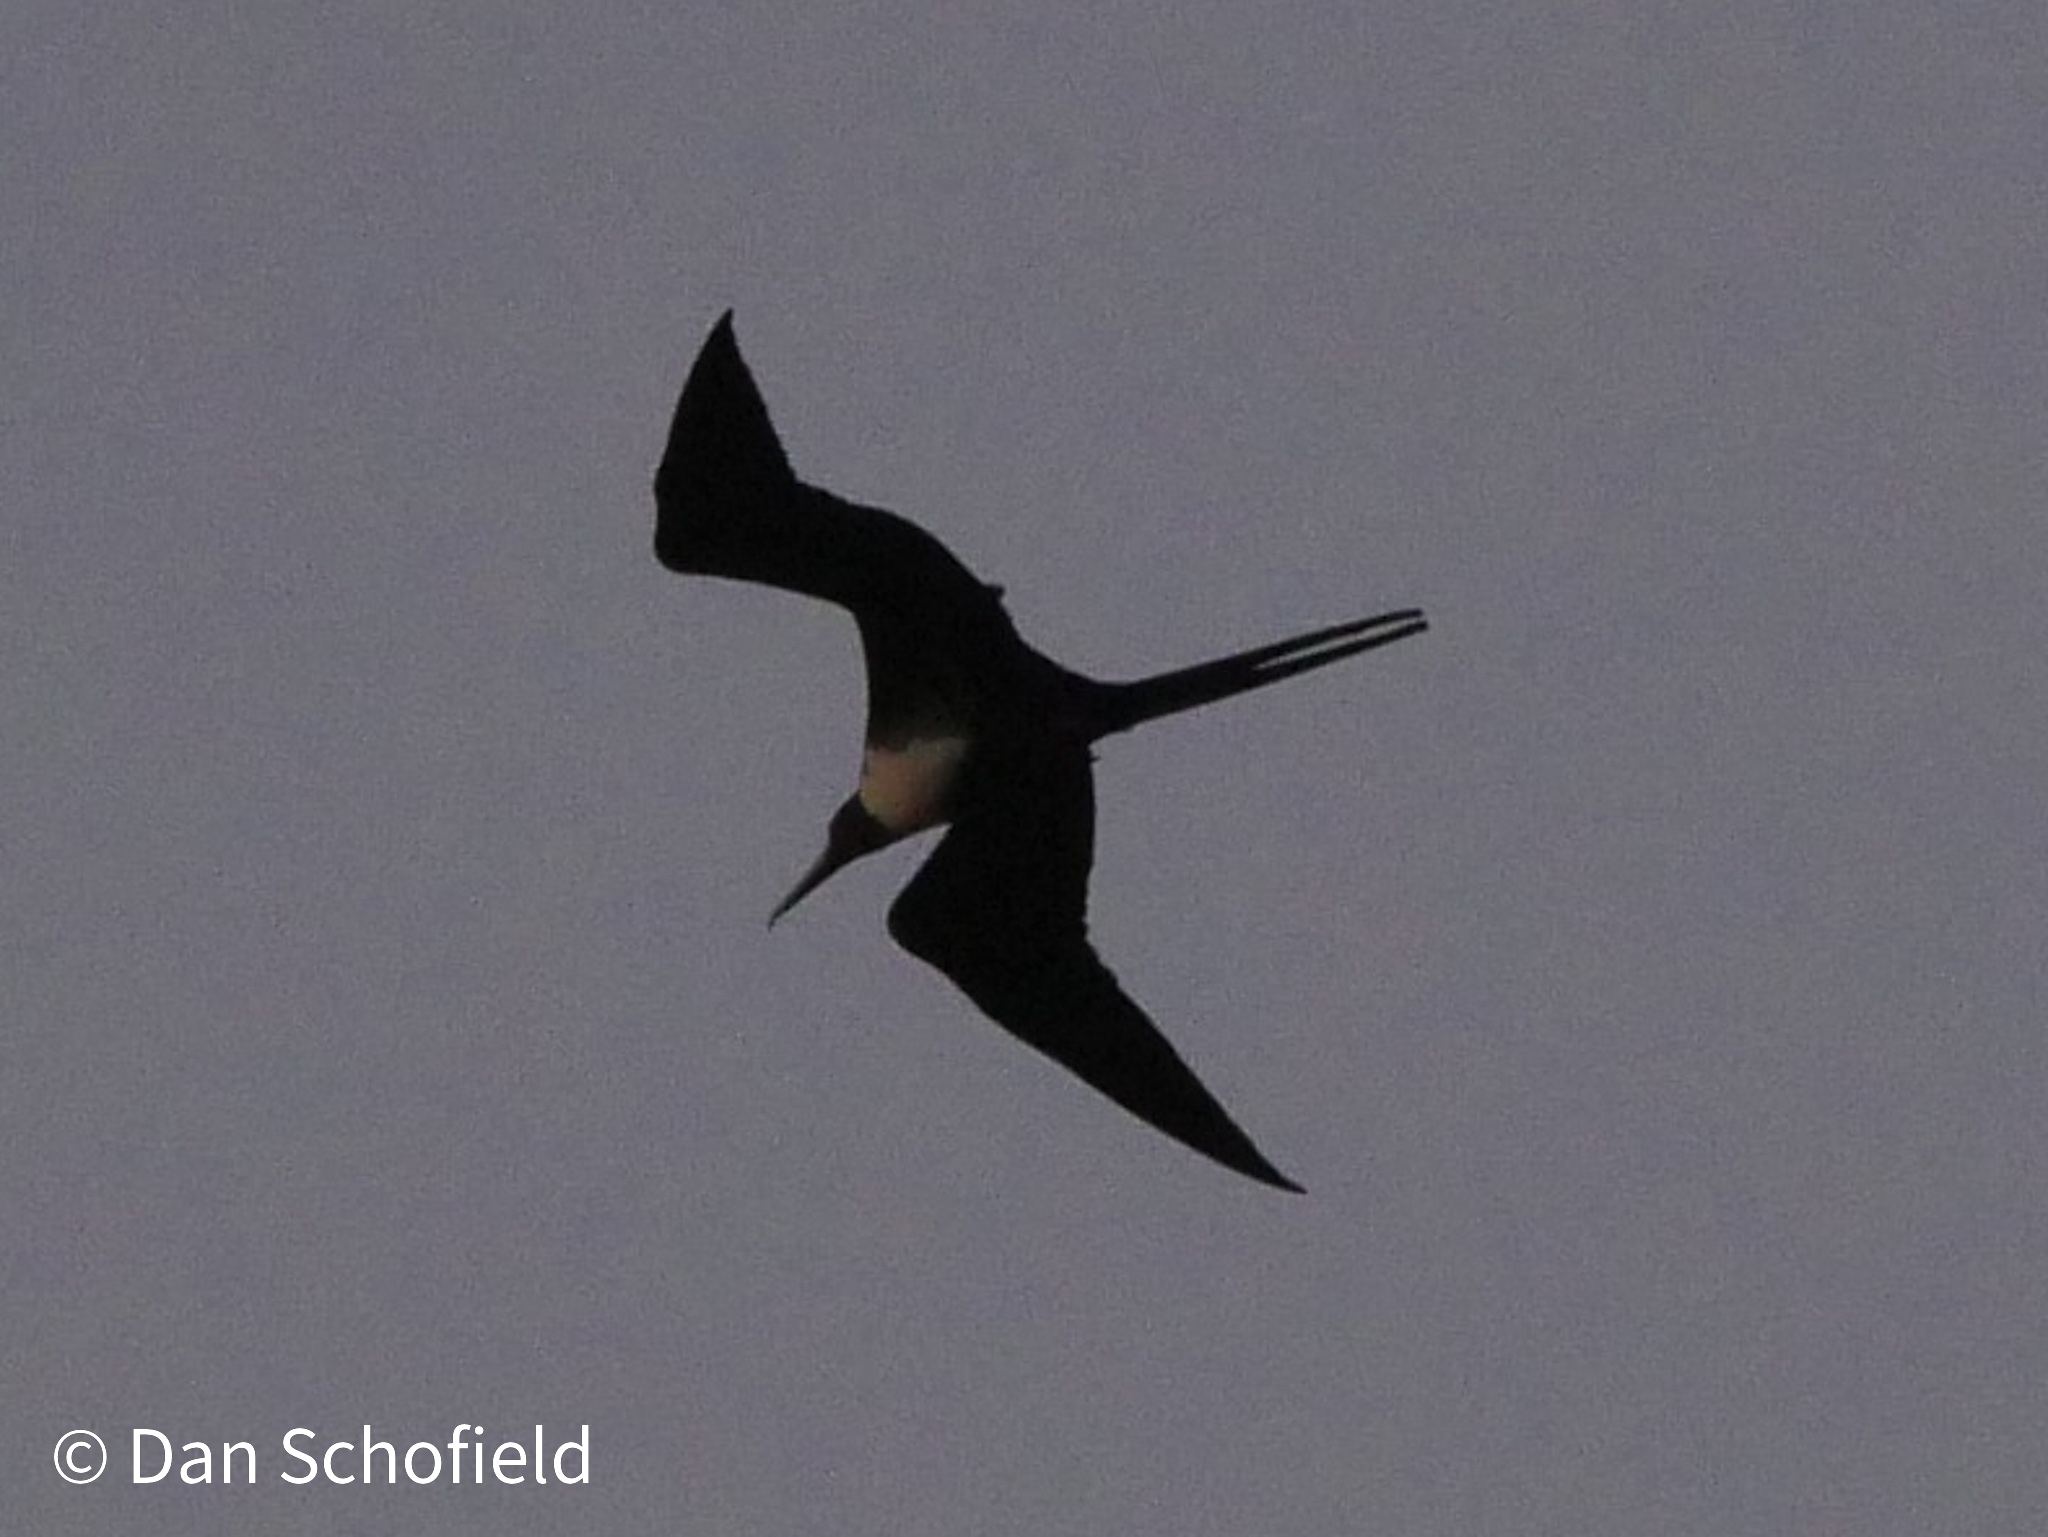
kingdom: Animalia
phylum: Chordata
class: Aves
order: Suliformes
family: Fregatidae
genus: Fregata
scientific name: Fregata magnificens
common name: Magnificent frigatebird
